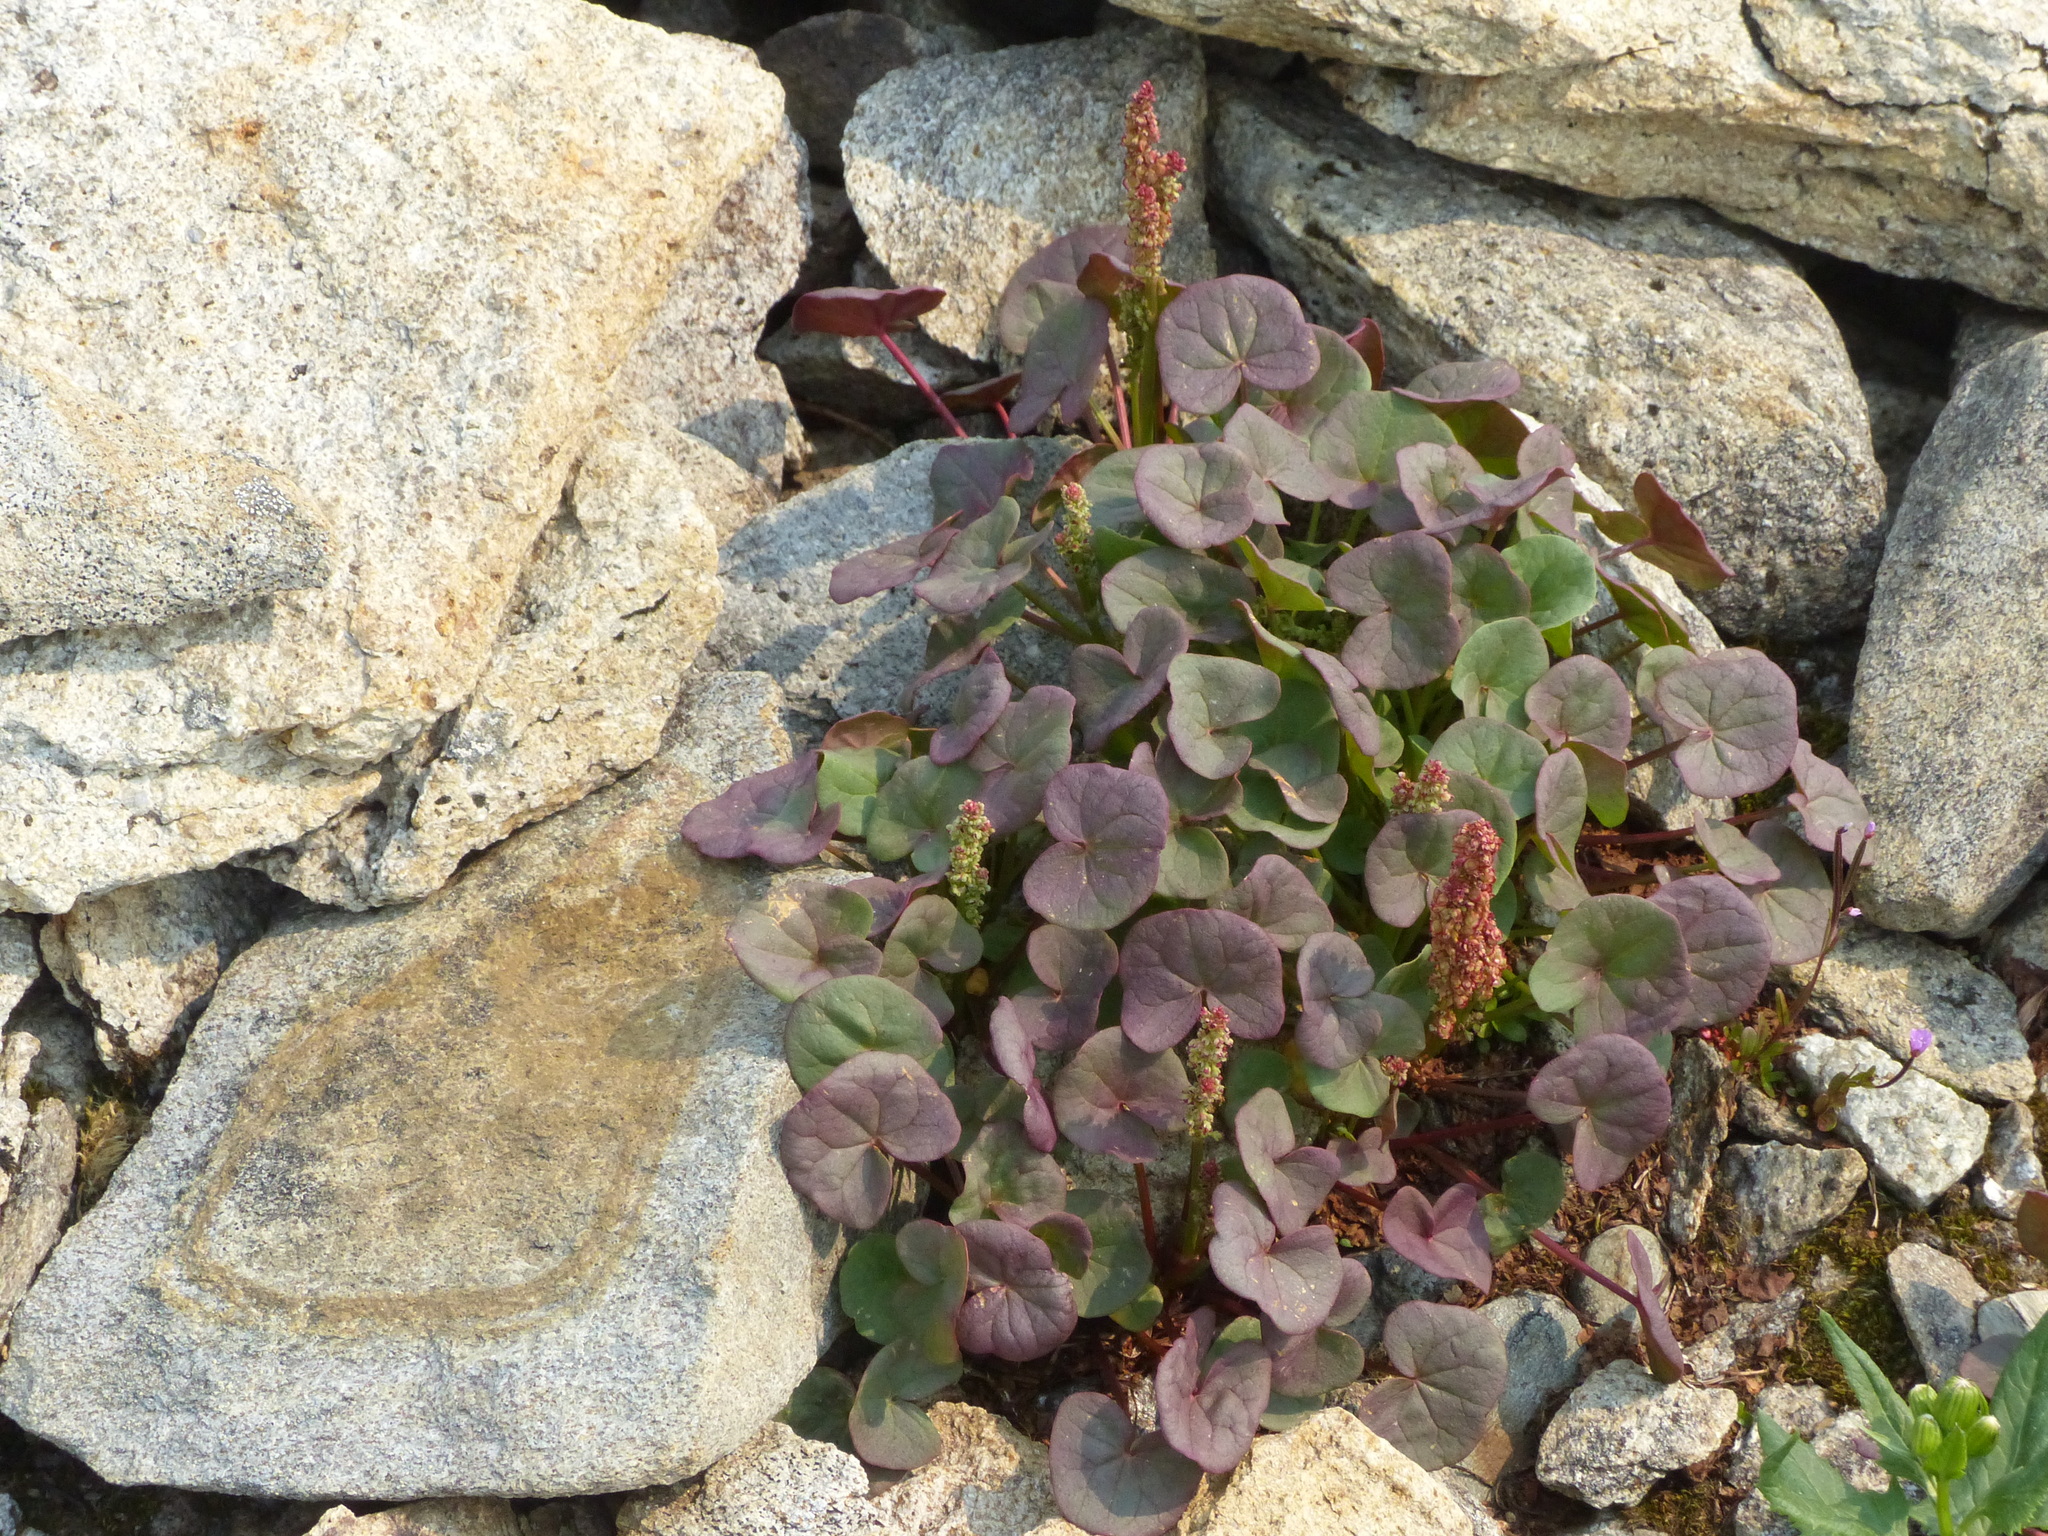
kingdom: Plantae
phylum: Tracheophyta
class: Magnoliopsida
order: Caryophyllales
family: Polygonaceae
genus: Oxyria
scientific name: Oxyria digyna
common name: Alpine mountain-sorrel
